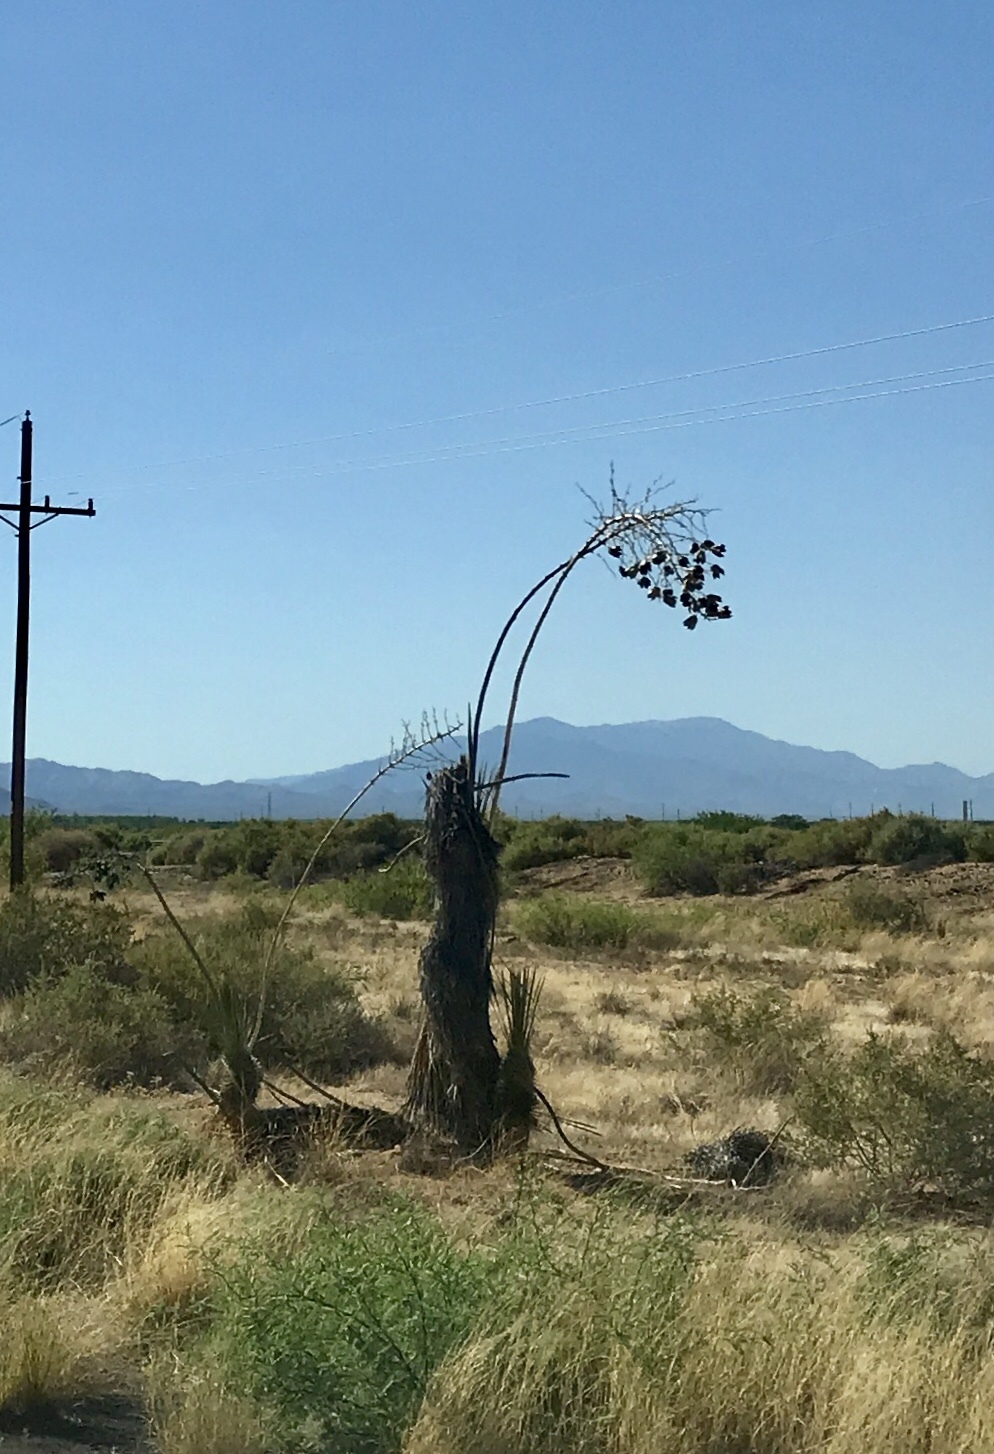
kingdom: Plantae
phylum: Tracheophyta
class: Liliopsida
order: Asparagales
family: Asparagaceae
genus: Yucca
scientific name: Yucca elata
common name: Palmella
